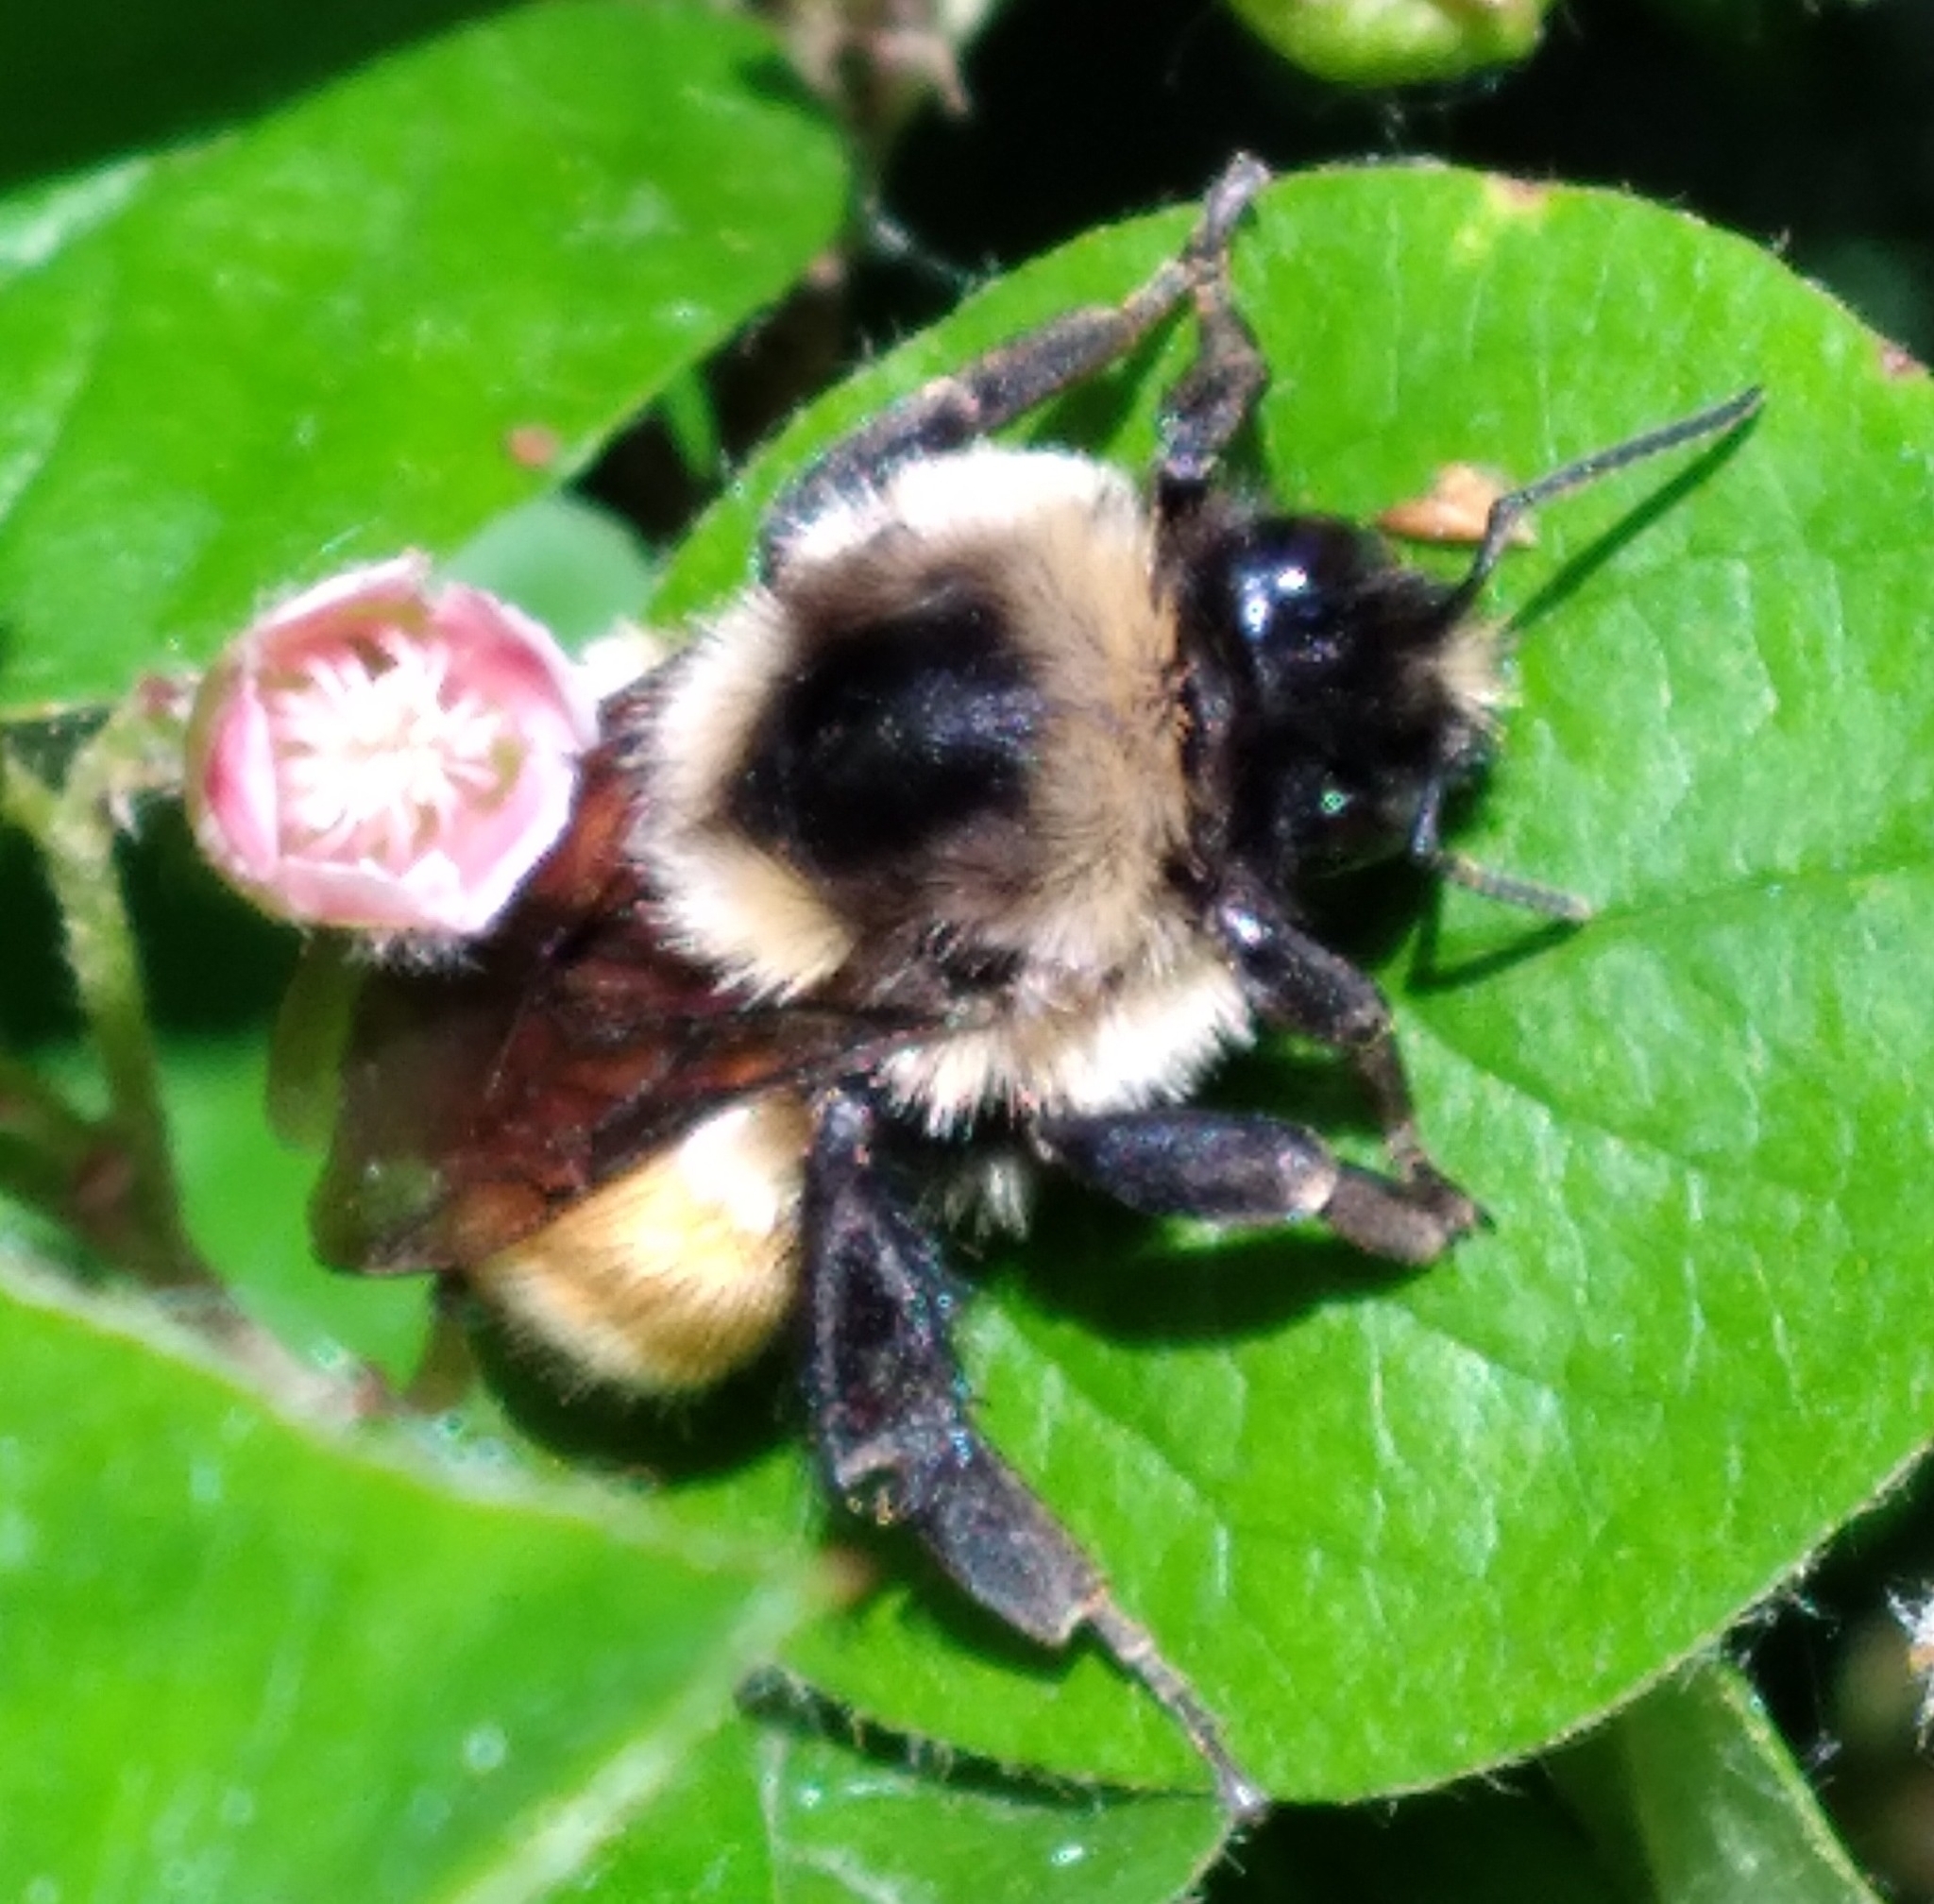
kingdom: Animalia
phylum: Arthropoda
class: Insecta
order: Hymenoptera
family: Apidae
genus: Bombus
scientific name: Bombus ternarius
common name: Tri-colored bumble bee
